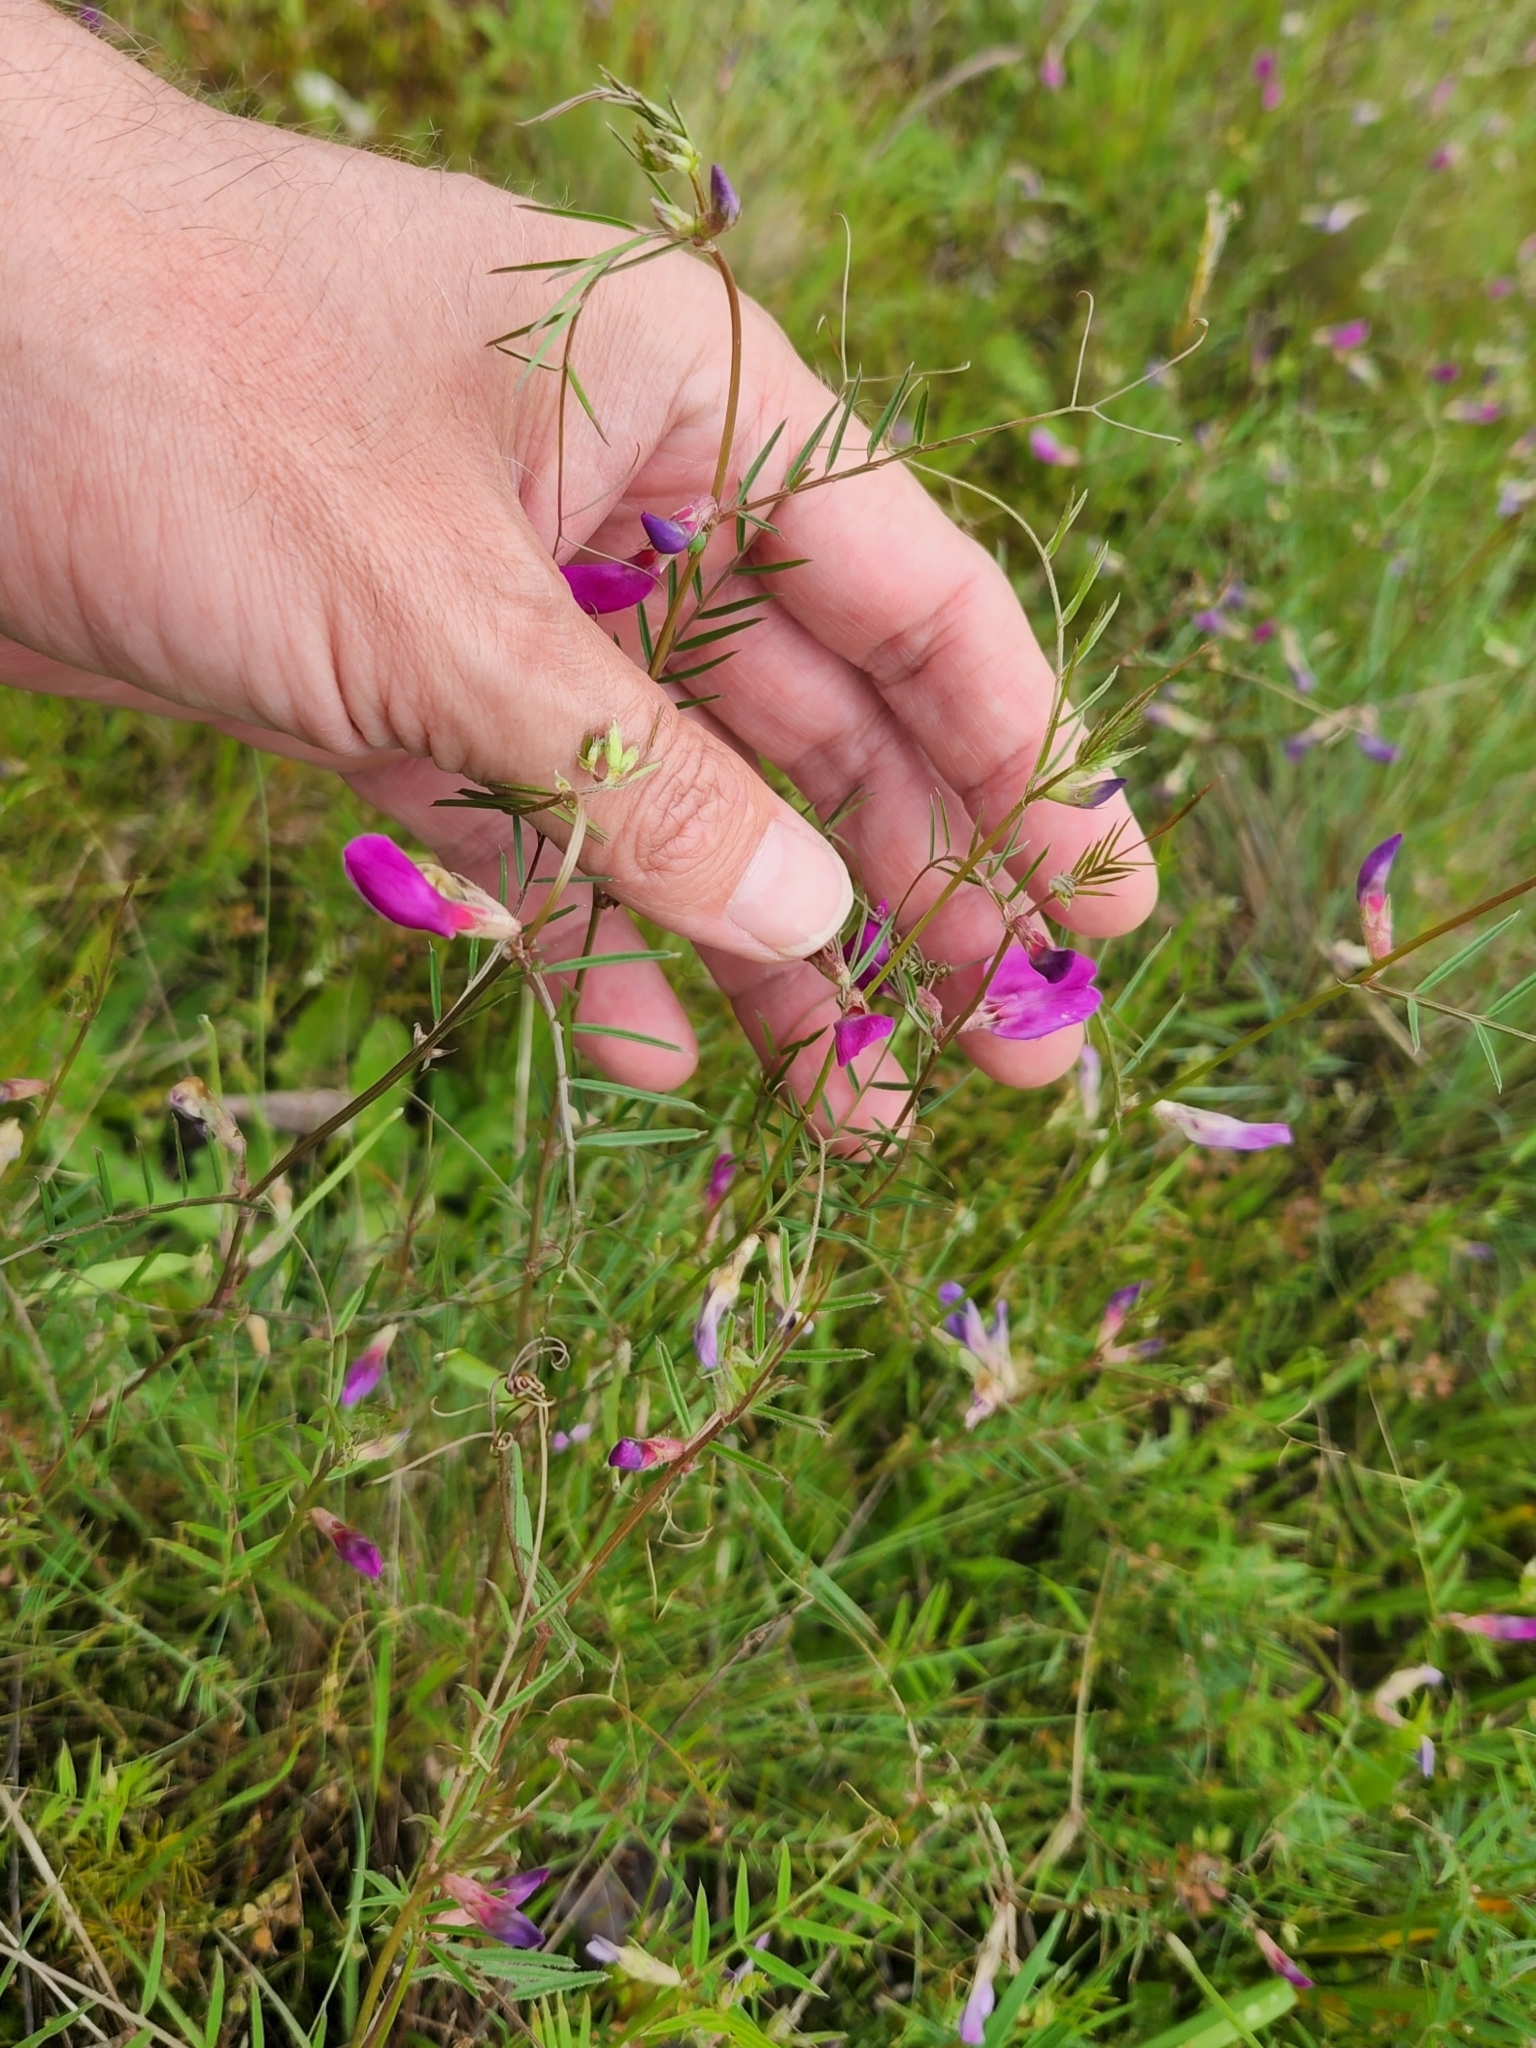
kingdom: Plantae
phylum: Tracheophyta
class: Magnoliopsida
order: Fabales
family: Fabaceae
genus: Vicia
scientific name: Vicia sativa
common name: Garden vetch
